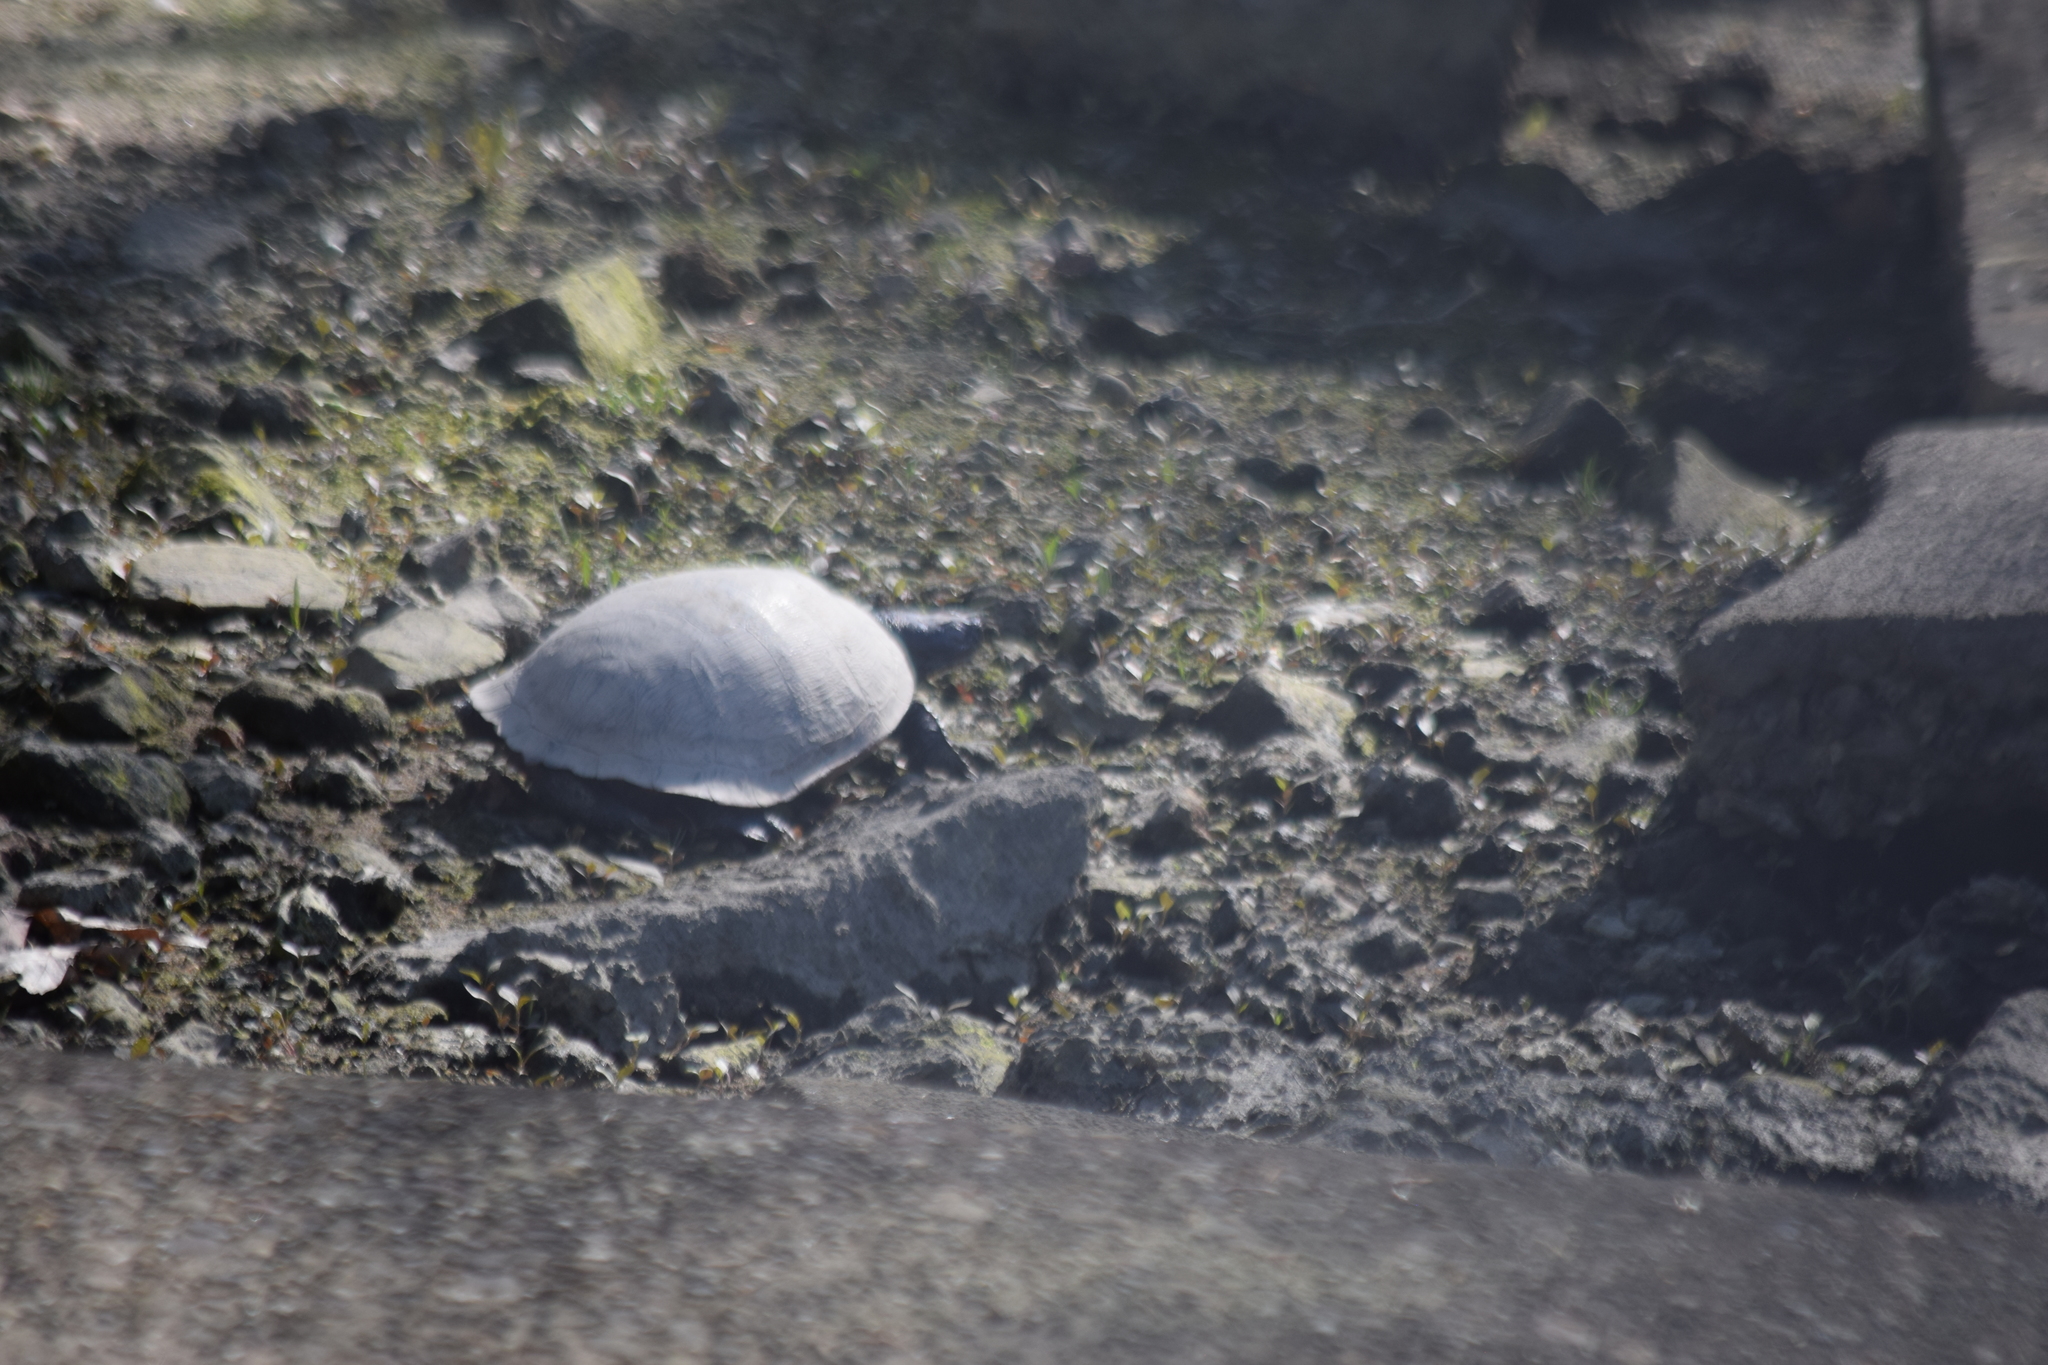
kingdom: Animalia
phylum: Chordata
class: Testudines
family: Emydidae
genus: Pseudemys
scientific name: Pseudemys rubriventris
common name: American red-bellied turtle
